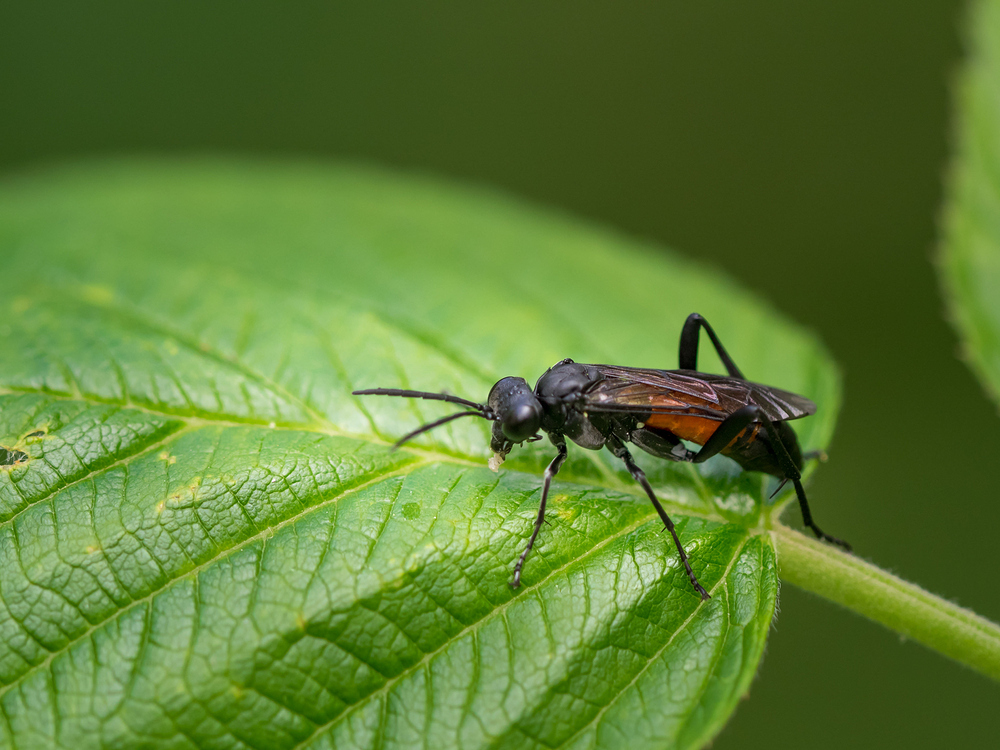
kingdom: Animalia
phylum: Arthropoda
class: Insecta
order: Hymenoptera
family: Tenthredinidae
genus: Macrophya
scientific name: Macrophya annulata
